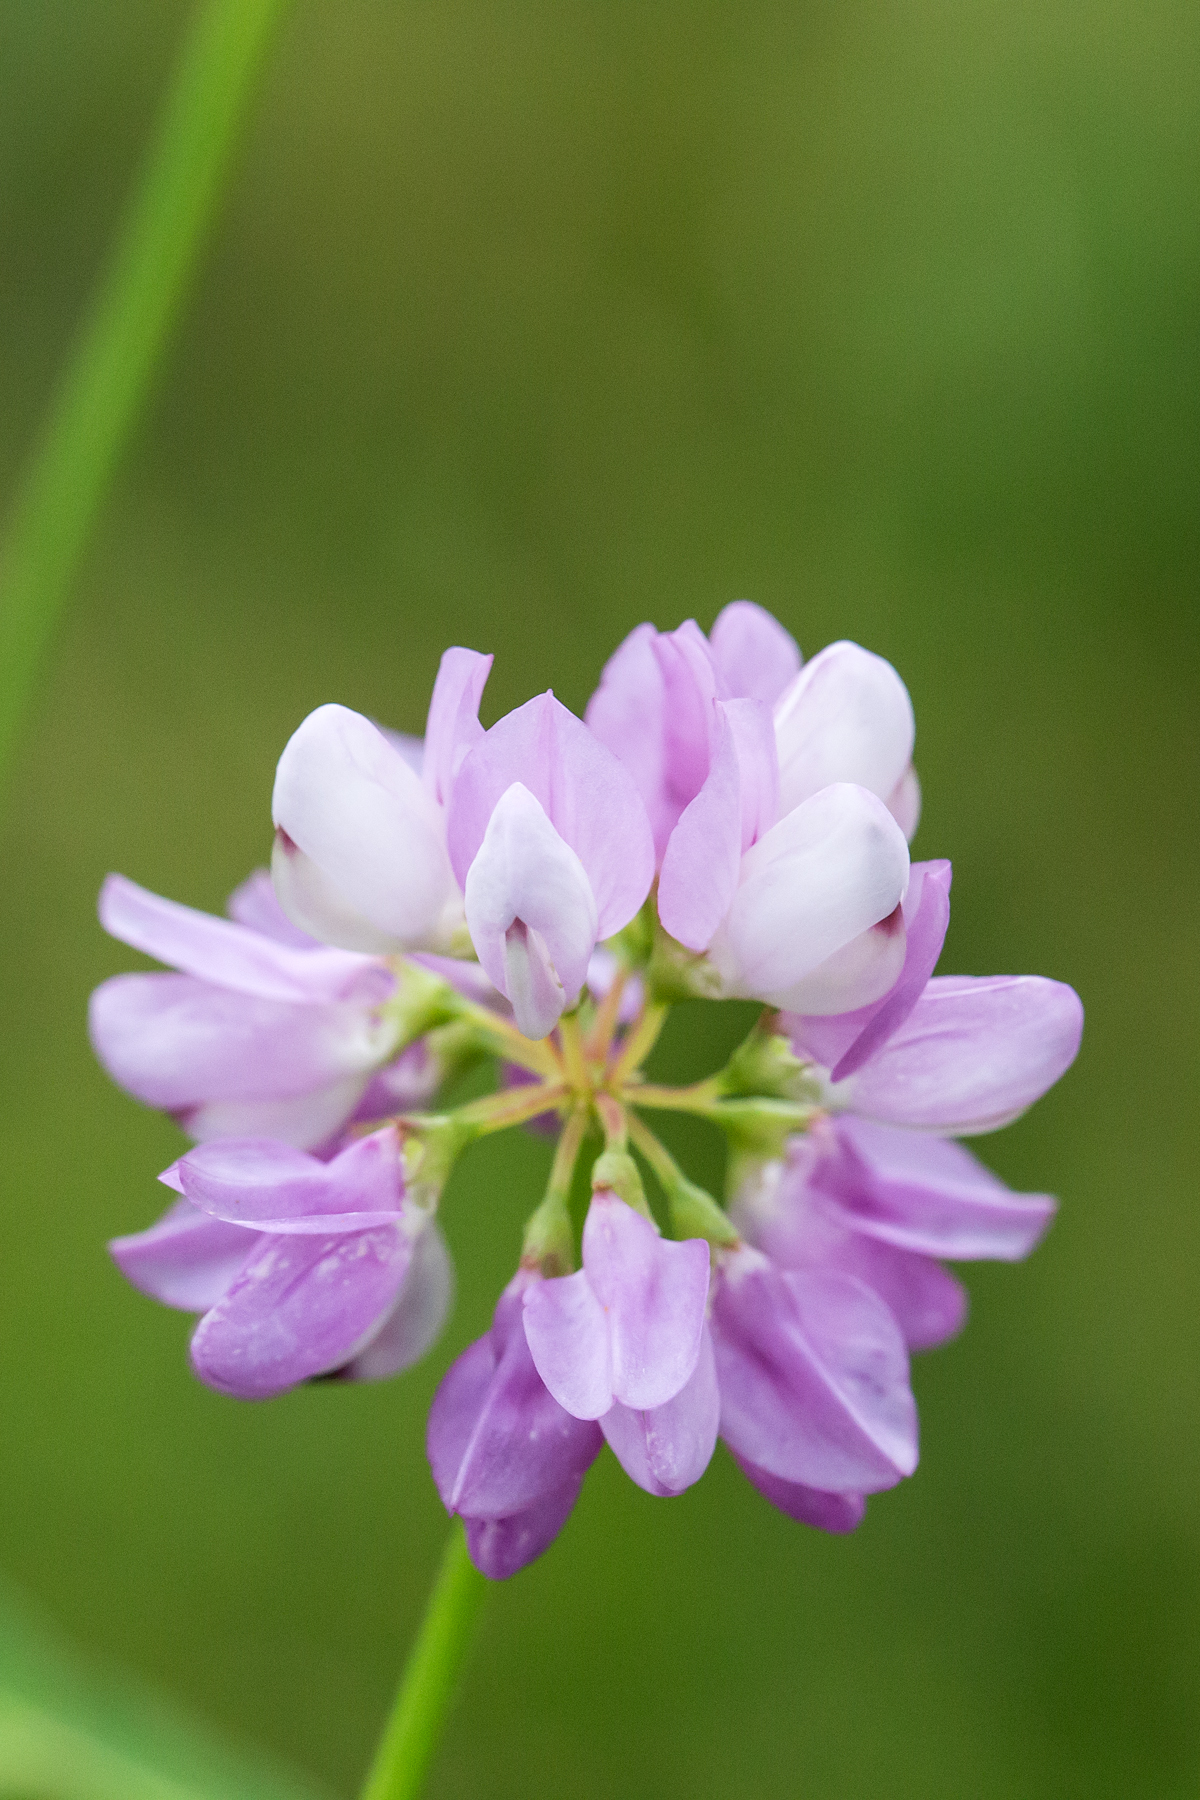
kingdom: Plantae
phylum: Tracheophyta
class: Magnoliopsida
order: Fabales
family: Fabaceae
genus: Coronilla
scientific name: Coronilla varia
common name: Crownvetch
